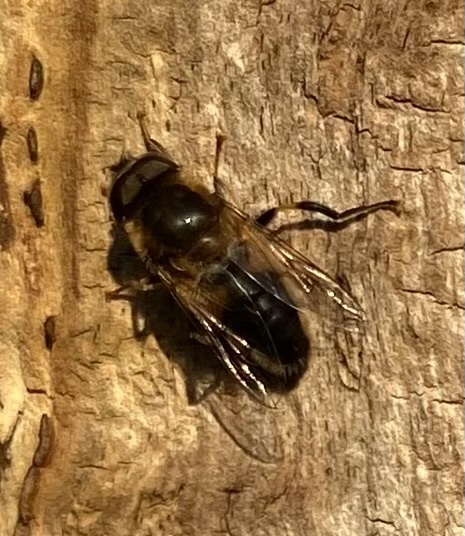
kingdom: Animalia
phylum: Arthropoda
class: Insecta
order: Diptera
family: Syrphidae
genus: Eristalis
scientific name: Eristalis pertinax
